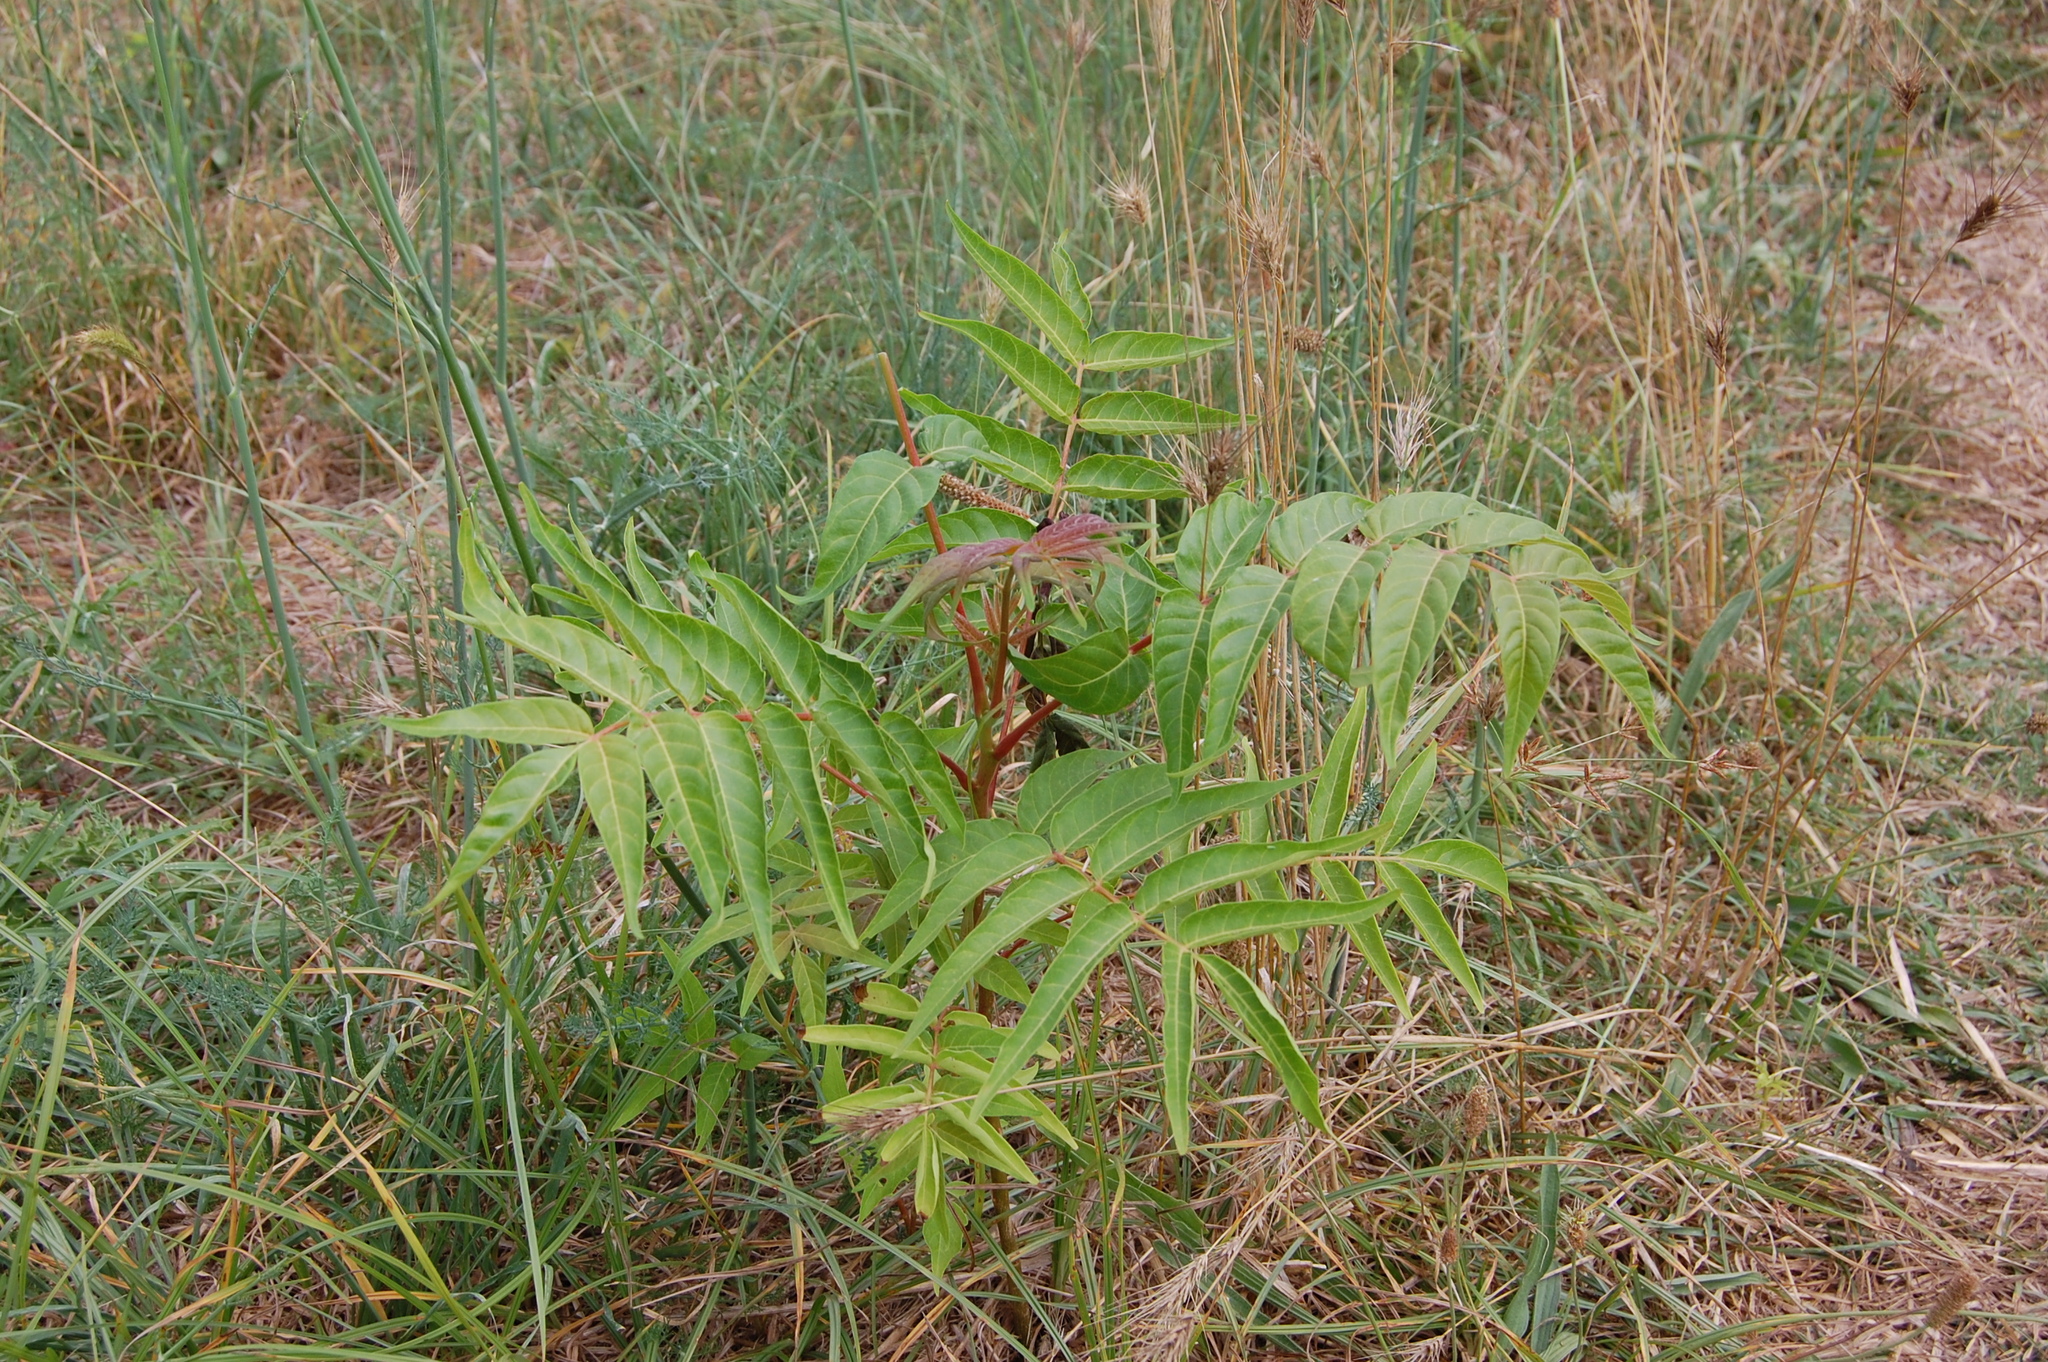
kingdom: Plantae
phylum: Tracheophyta
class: Magnoliopsida
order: Sapindales
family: Simaroubaceae
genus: Ailanthus
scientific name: Ailanthus altissima
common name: Tree-of-heaven
